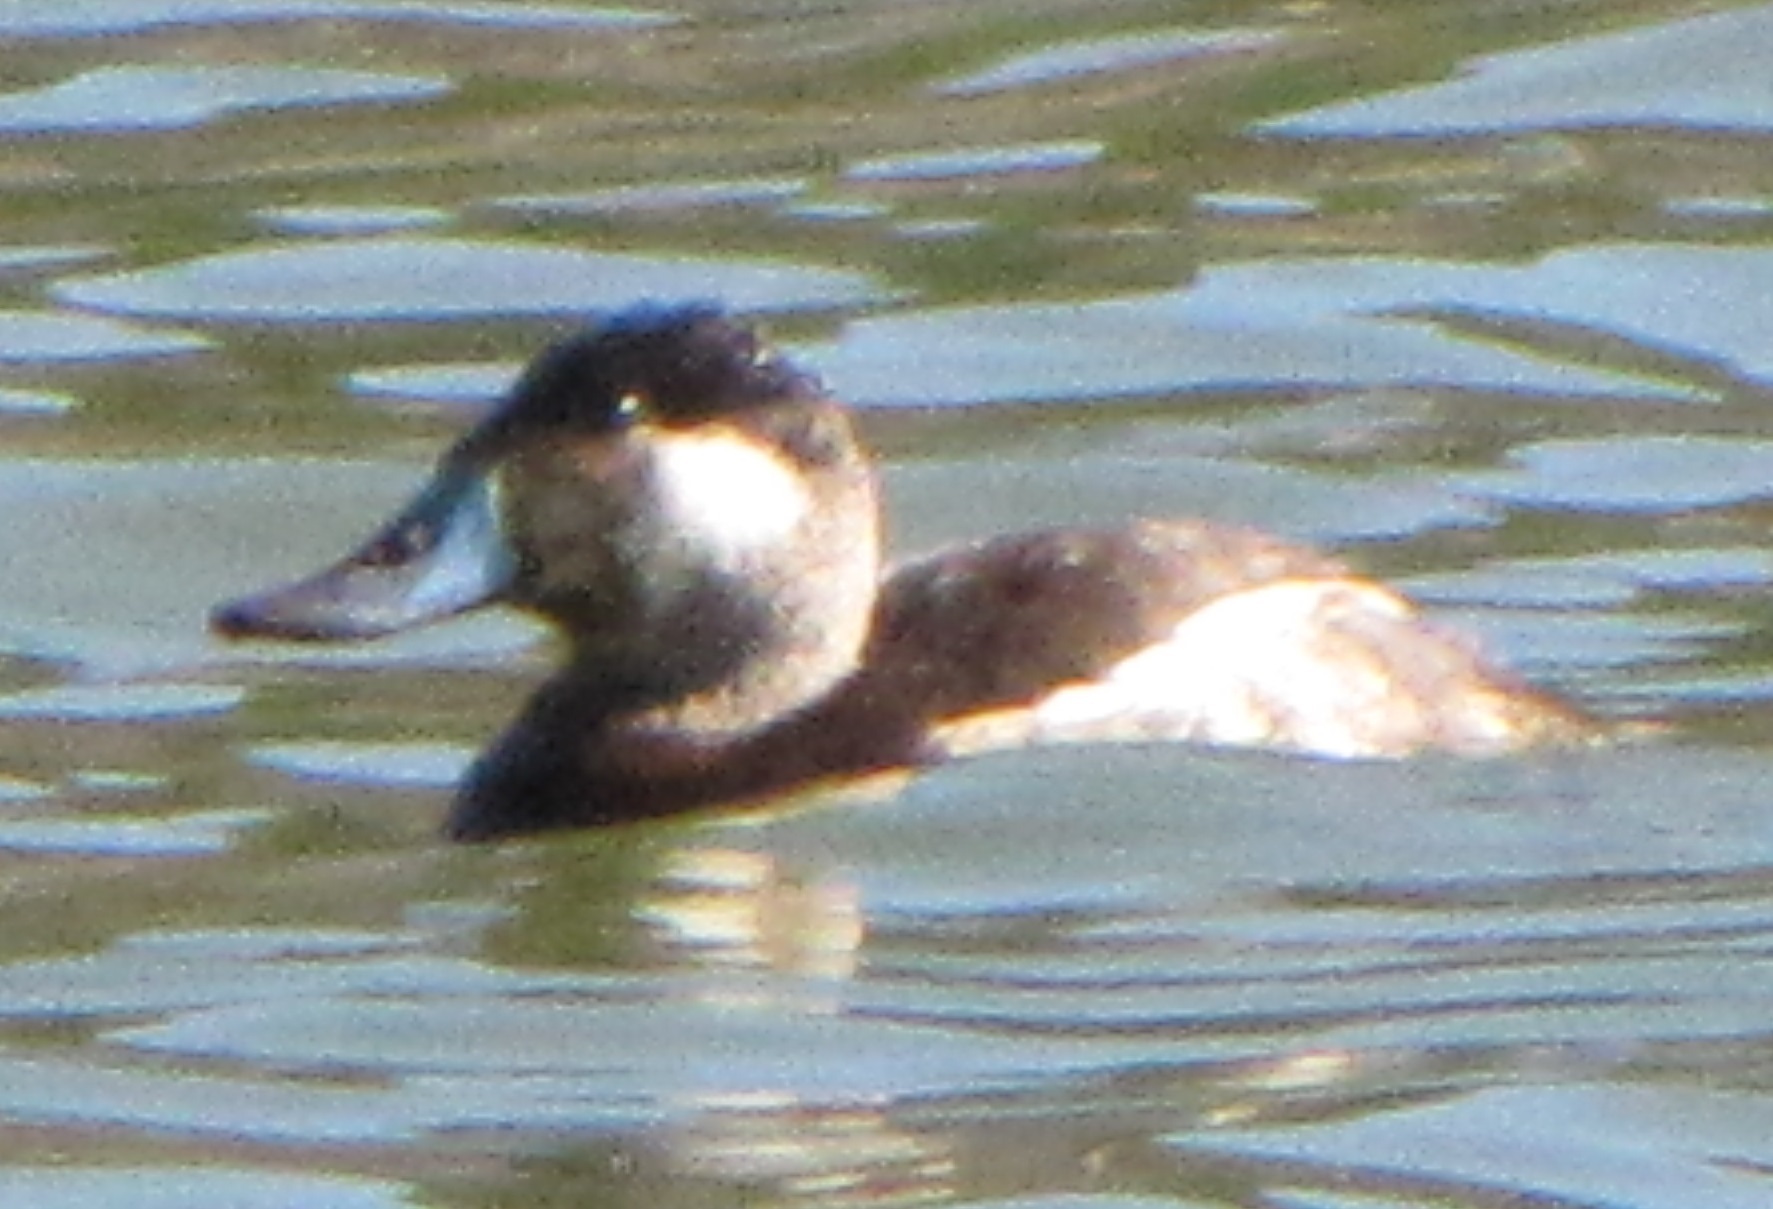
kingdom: Animalia
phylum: Chordata
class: Aves
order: Anseriformes
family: Anatidae
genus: Oxyura
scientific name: Oxyura jamaicensis
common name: Ruddy duck
